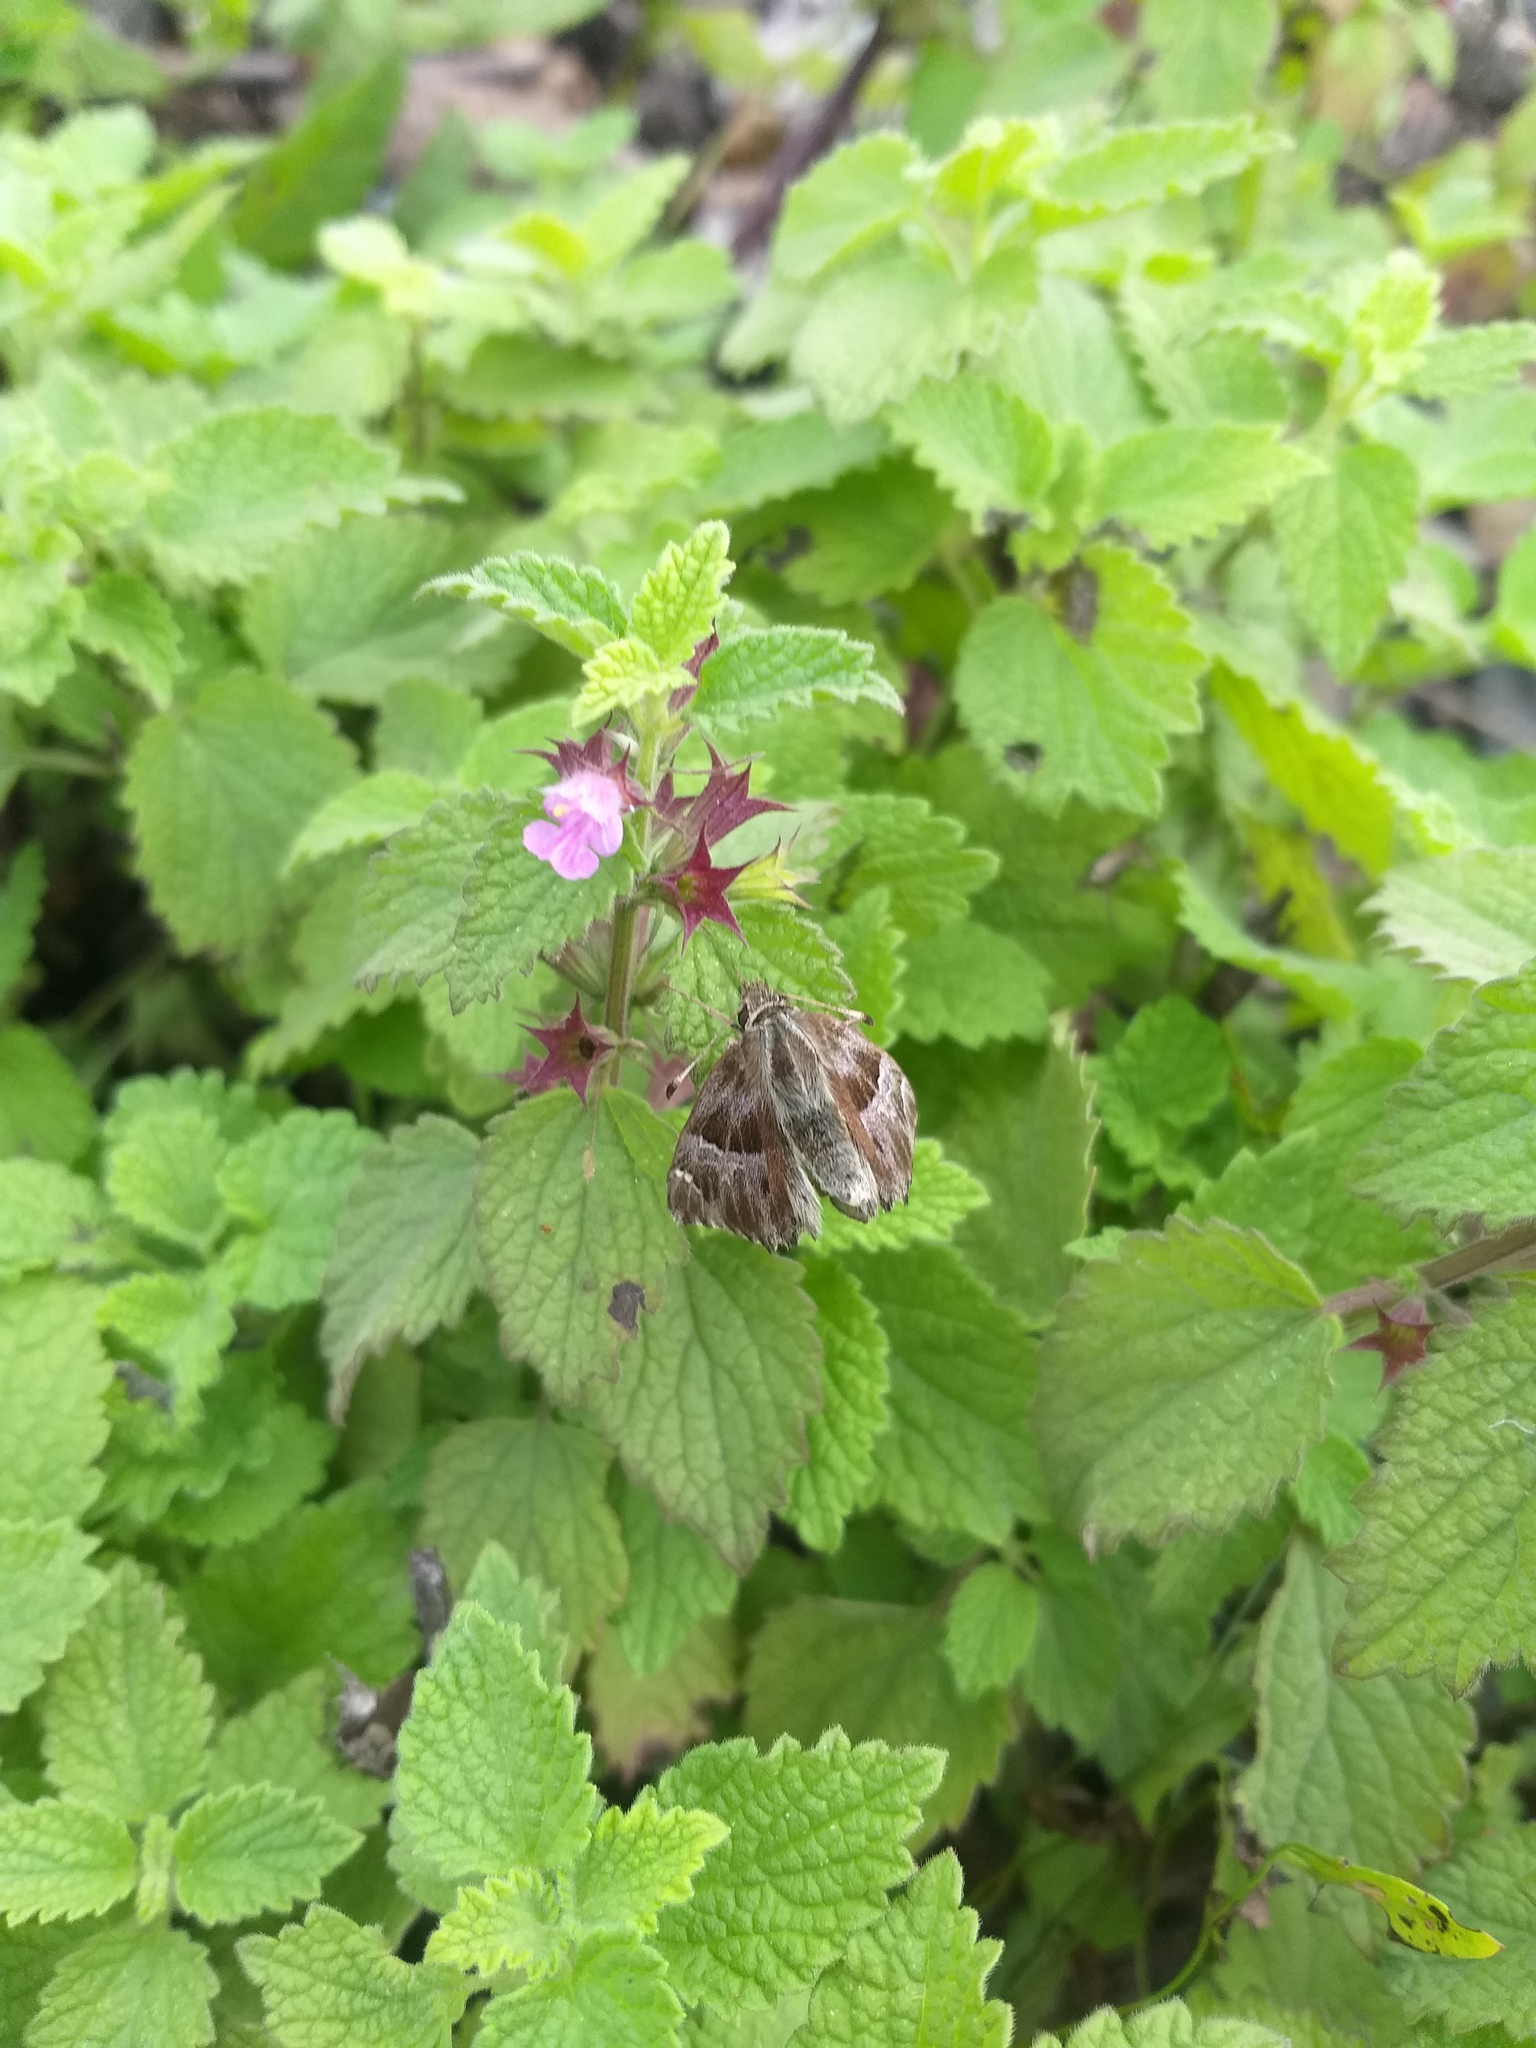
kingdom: Plantae
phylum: Tracheophyta
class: Magnoliopsida
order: Lamiales
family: Lamiaceae
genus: Ballota
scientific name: Ballota nigra
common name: Black horehound
